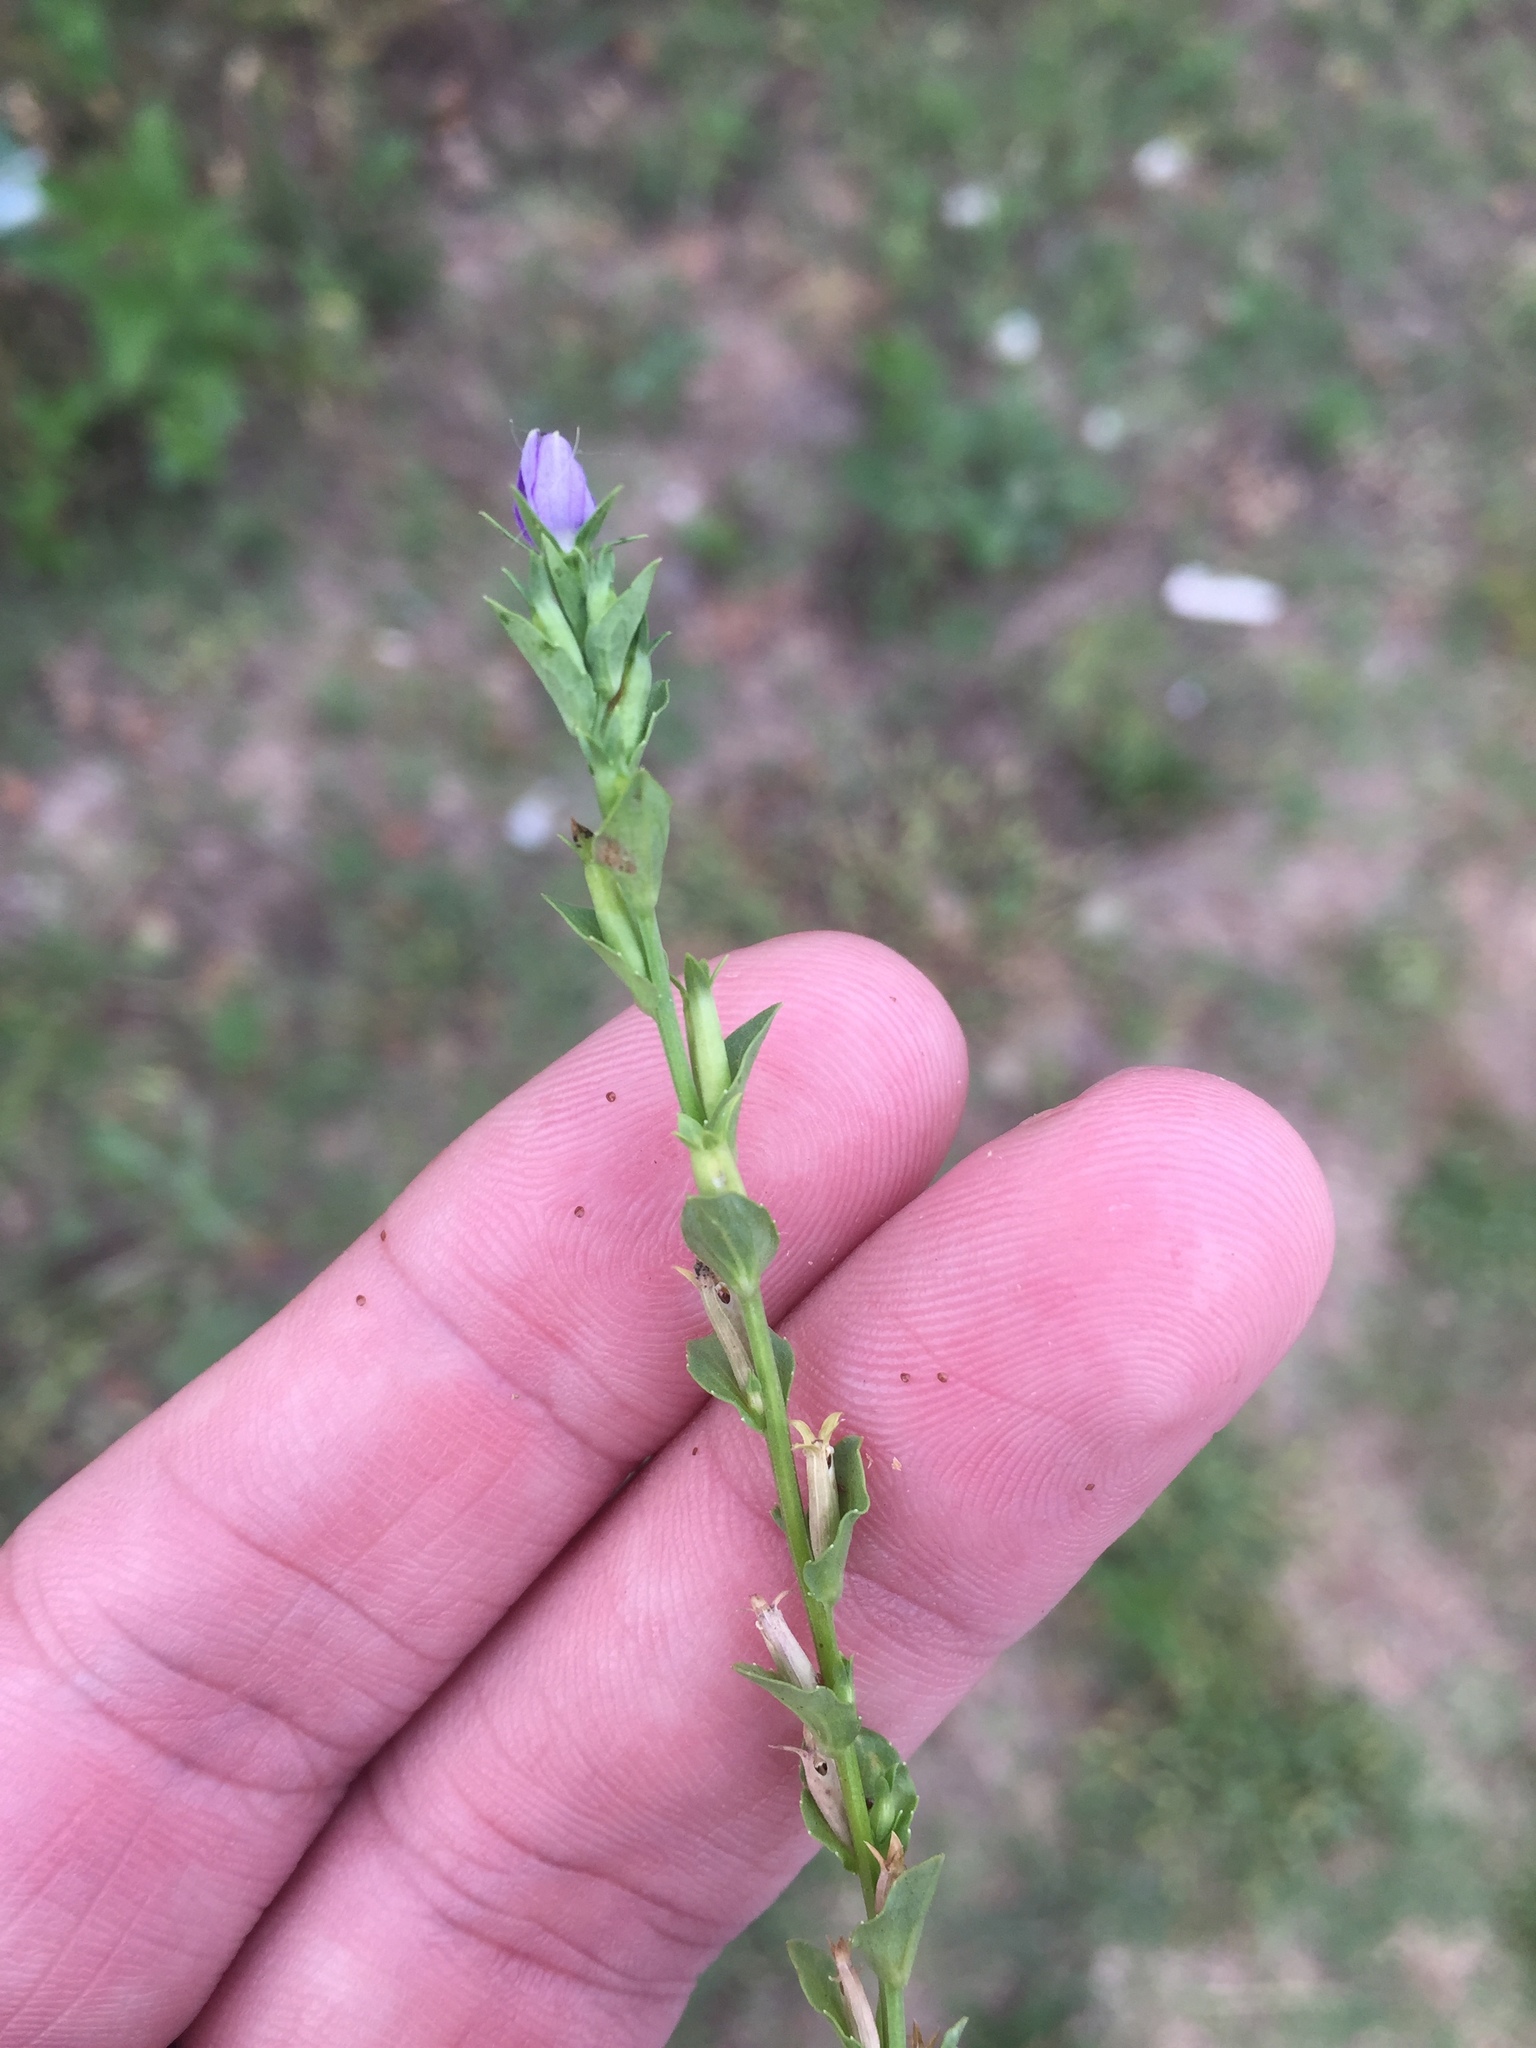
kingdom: Plantae
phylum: Tracheophyta
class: Magnoliopsida
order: Asterales
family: Campanulaceae
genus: Triodanis
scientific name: Triodanis biflora
